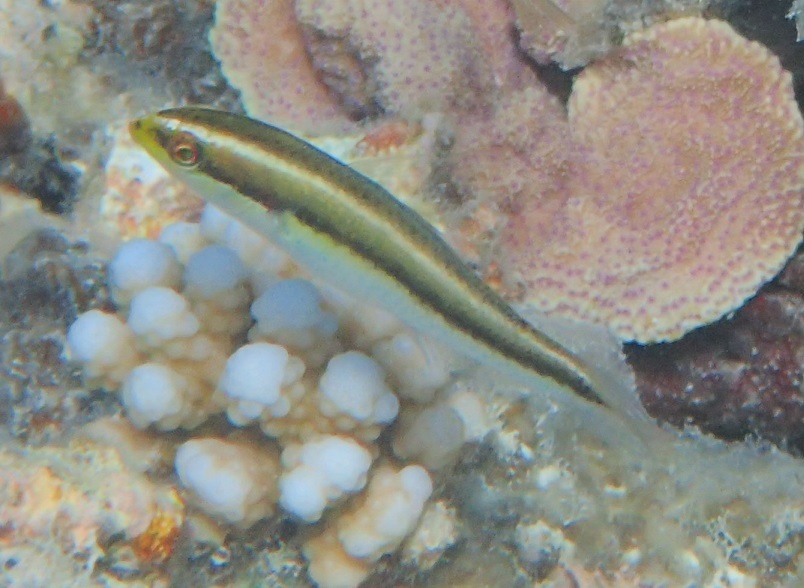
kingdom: Animalia
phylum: Chordata
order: Perciformes
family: Labridae
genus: Stethojulis
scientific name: Stethojulis interrupta
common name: Cutribbon wrasse
